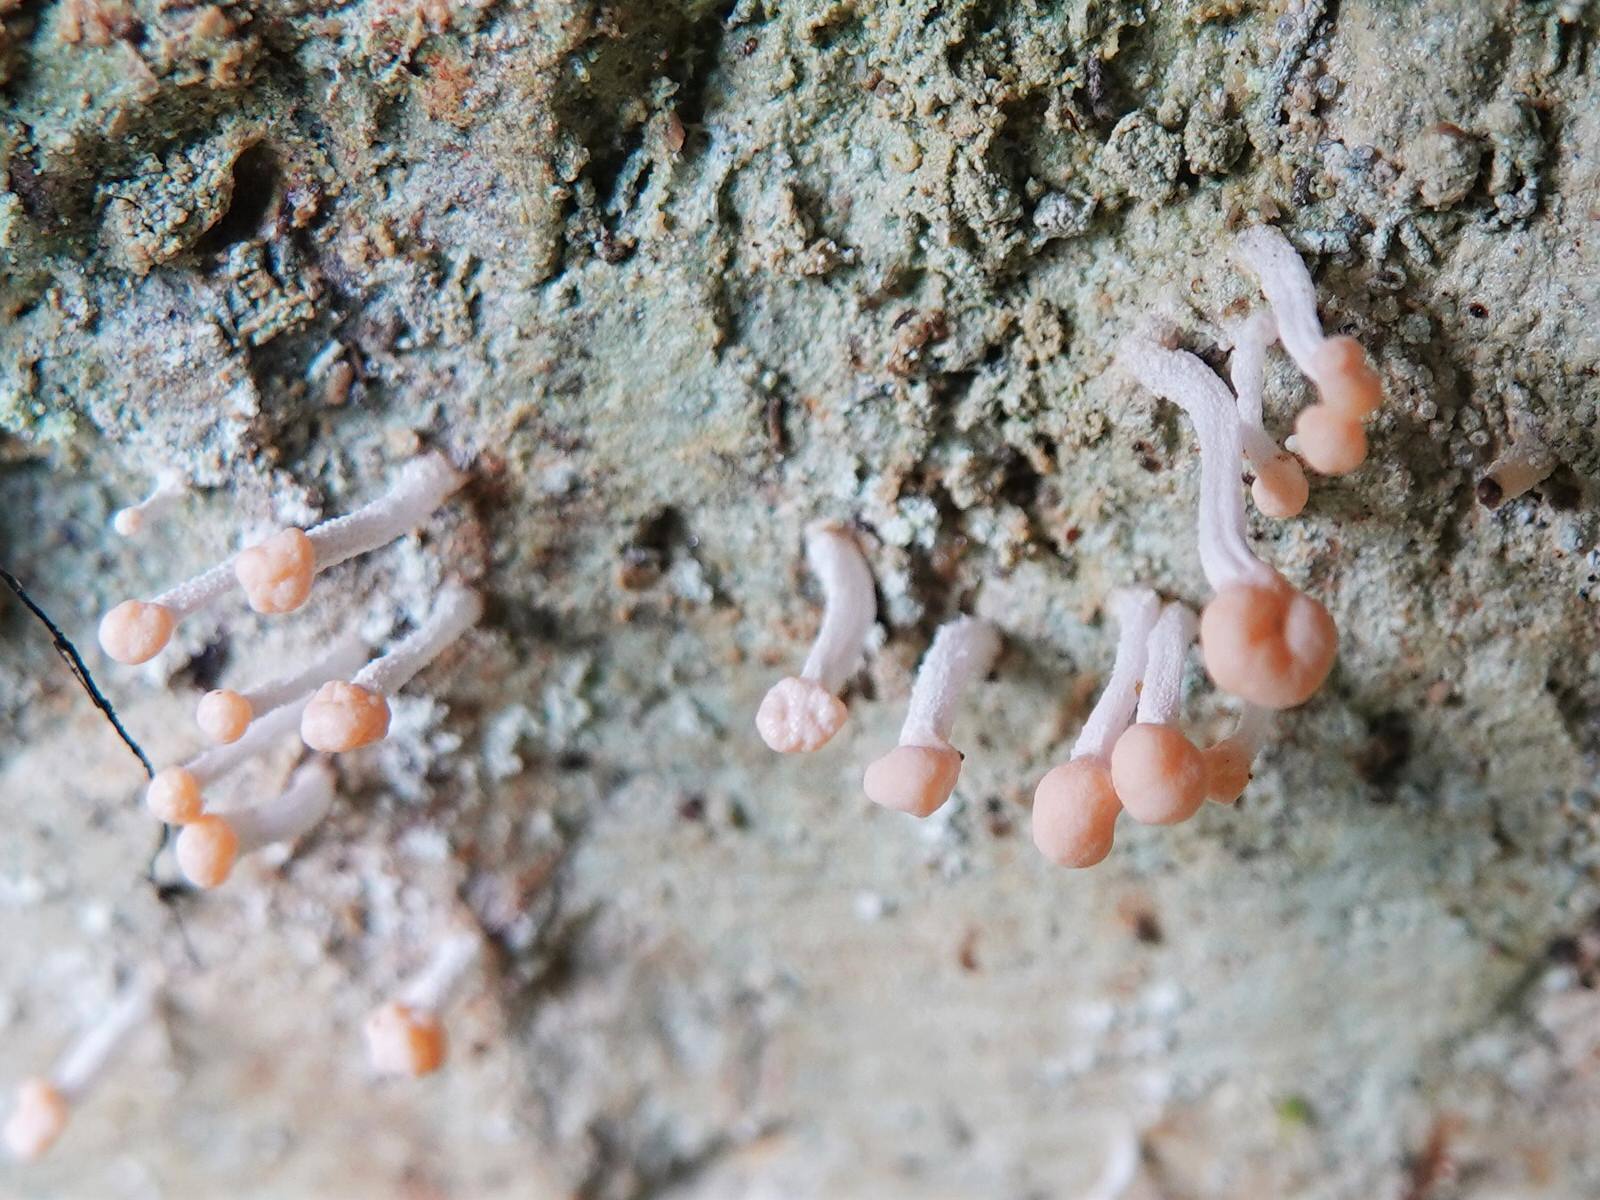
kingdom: Fungi
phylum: Ascomycota
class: Lecanoromycetes
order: Pertusariales
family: Icmadophilaceae
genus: Dibaeis
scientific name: Dibaeis arcuata
